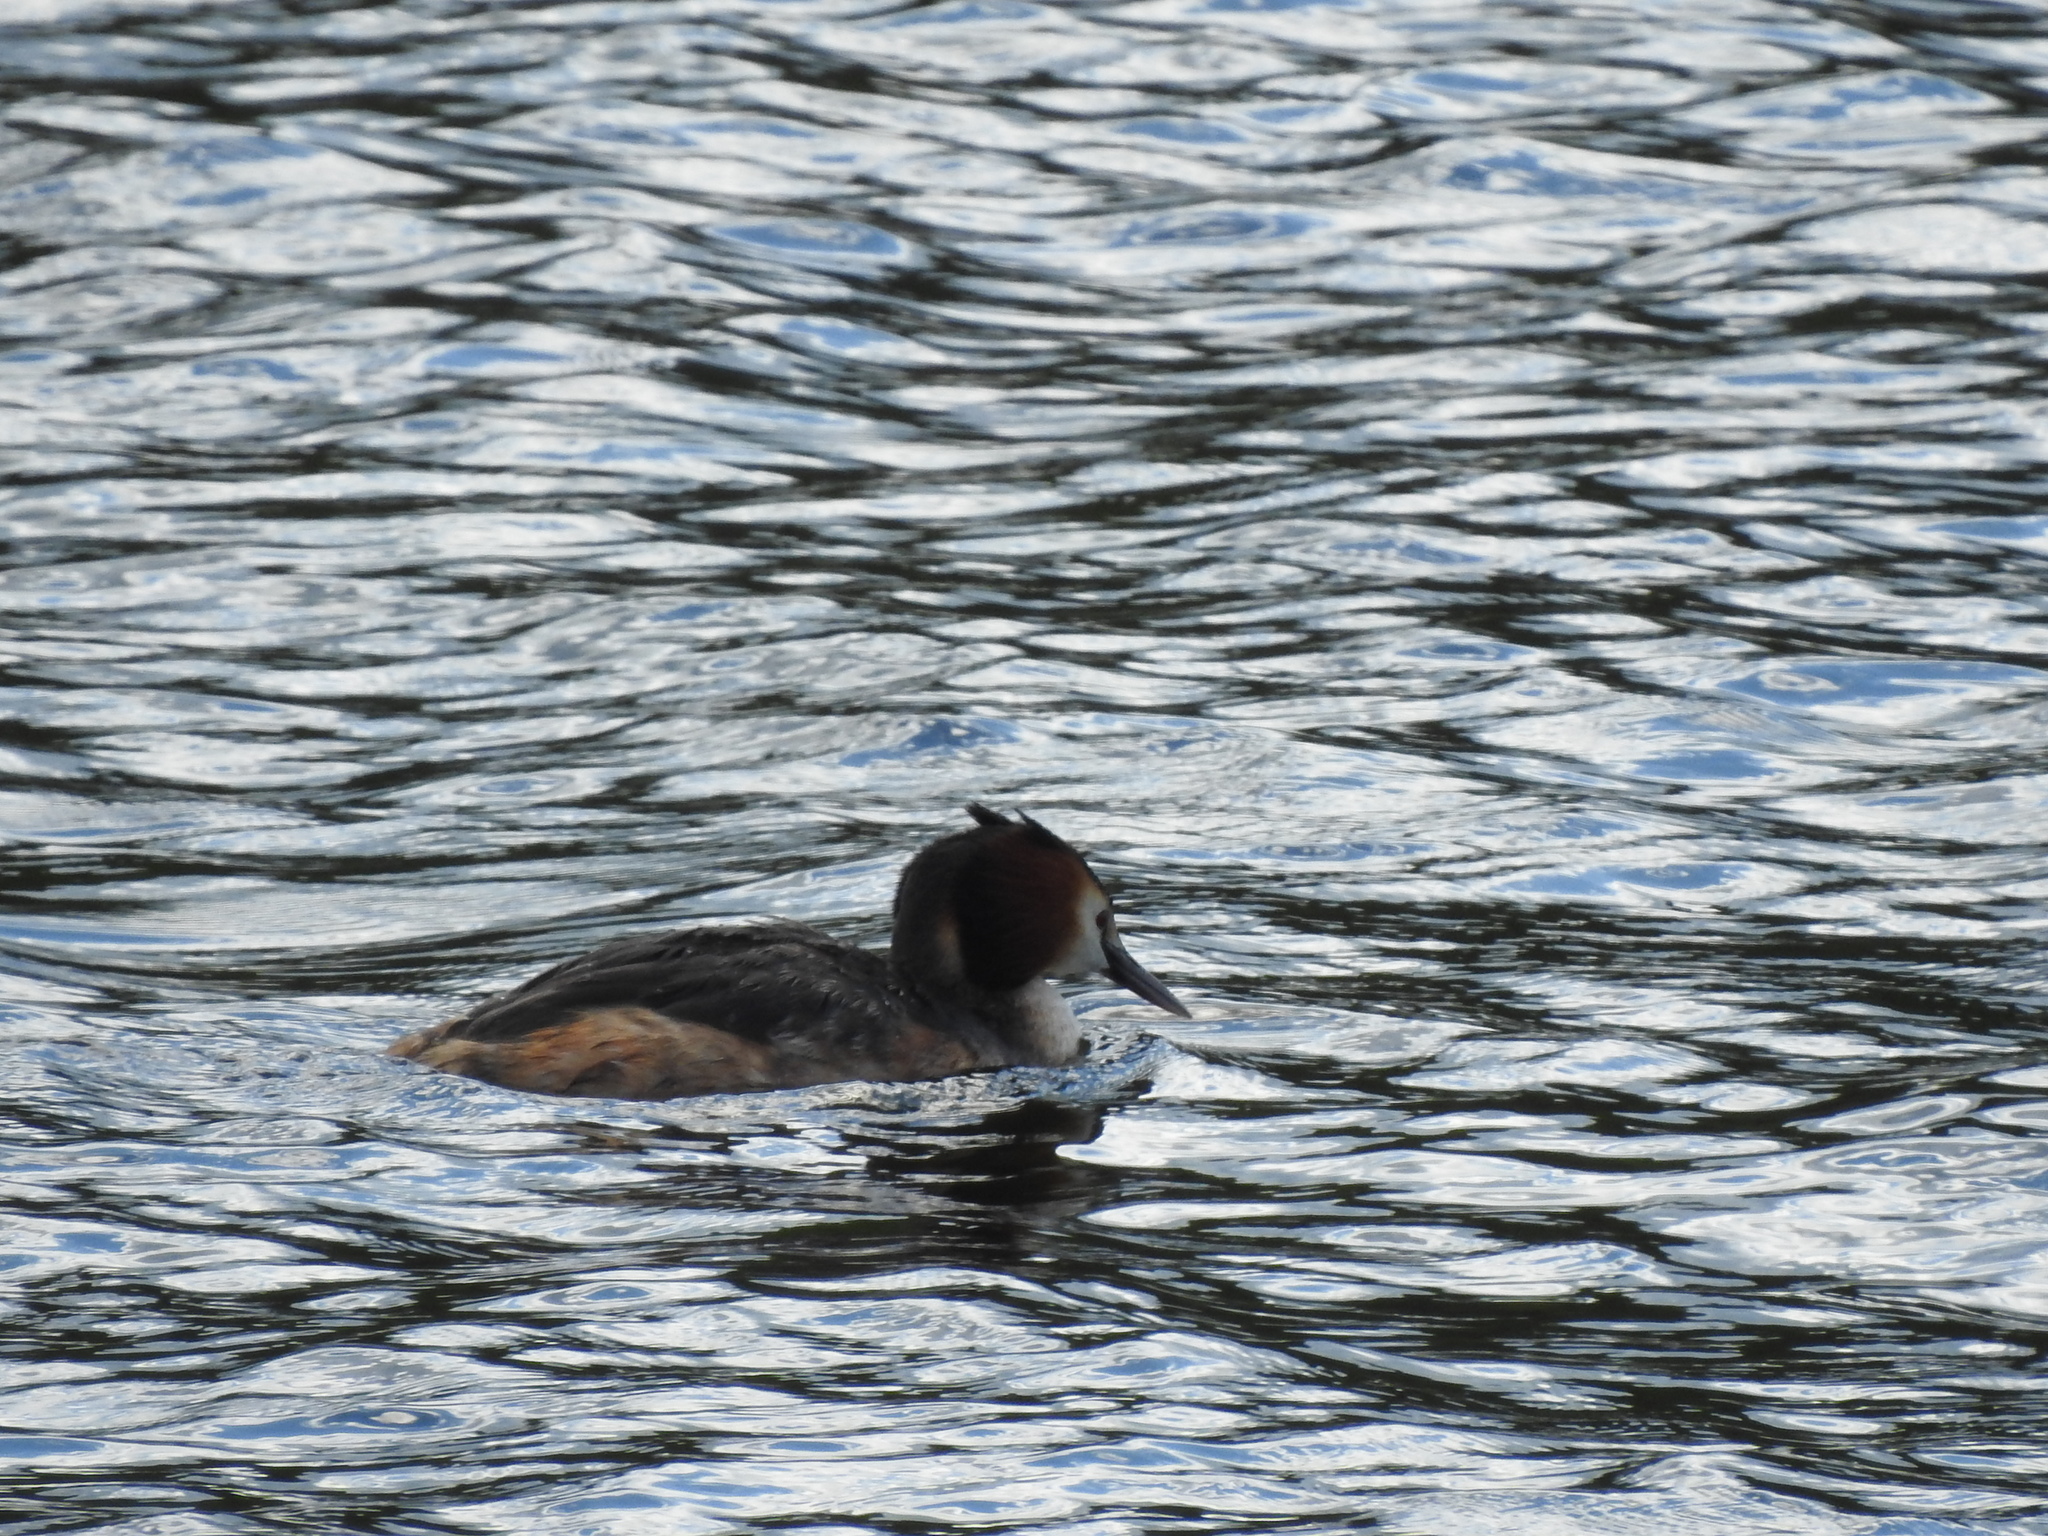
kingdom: Animalia
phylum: Chordata
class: Aves
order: Podicipediformes
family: Podicipedidae
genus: Podiceps
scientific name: Podiceps cristatus
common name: Great crested grebe
